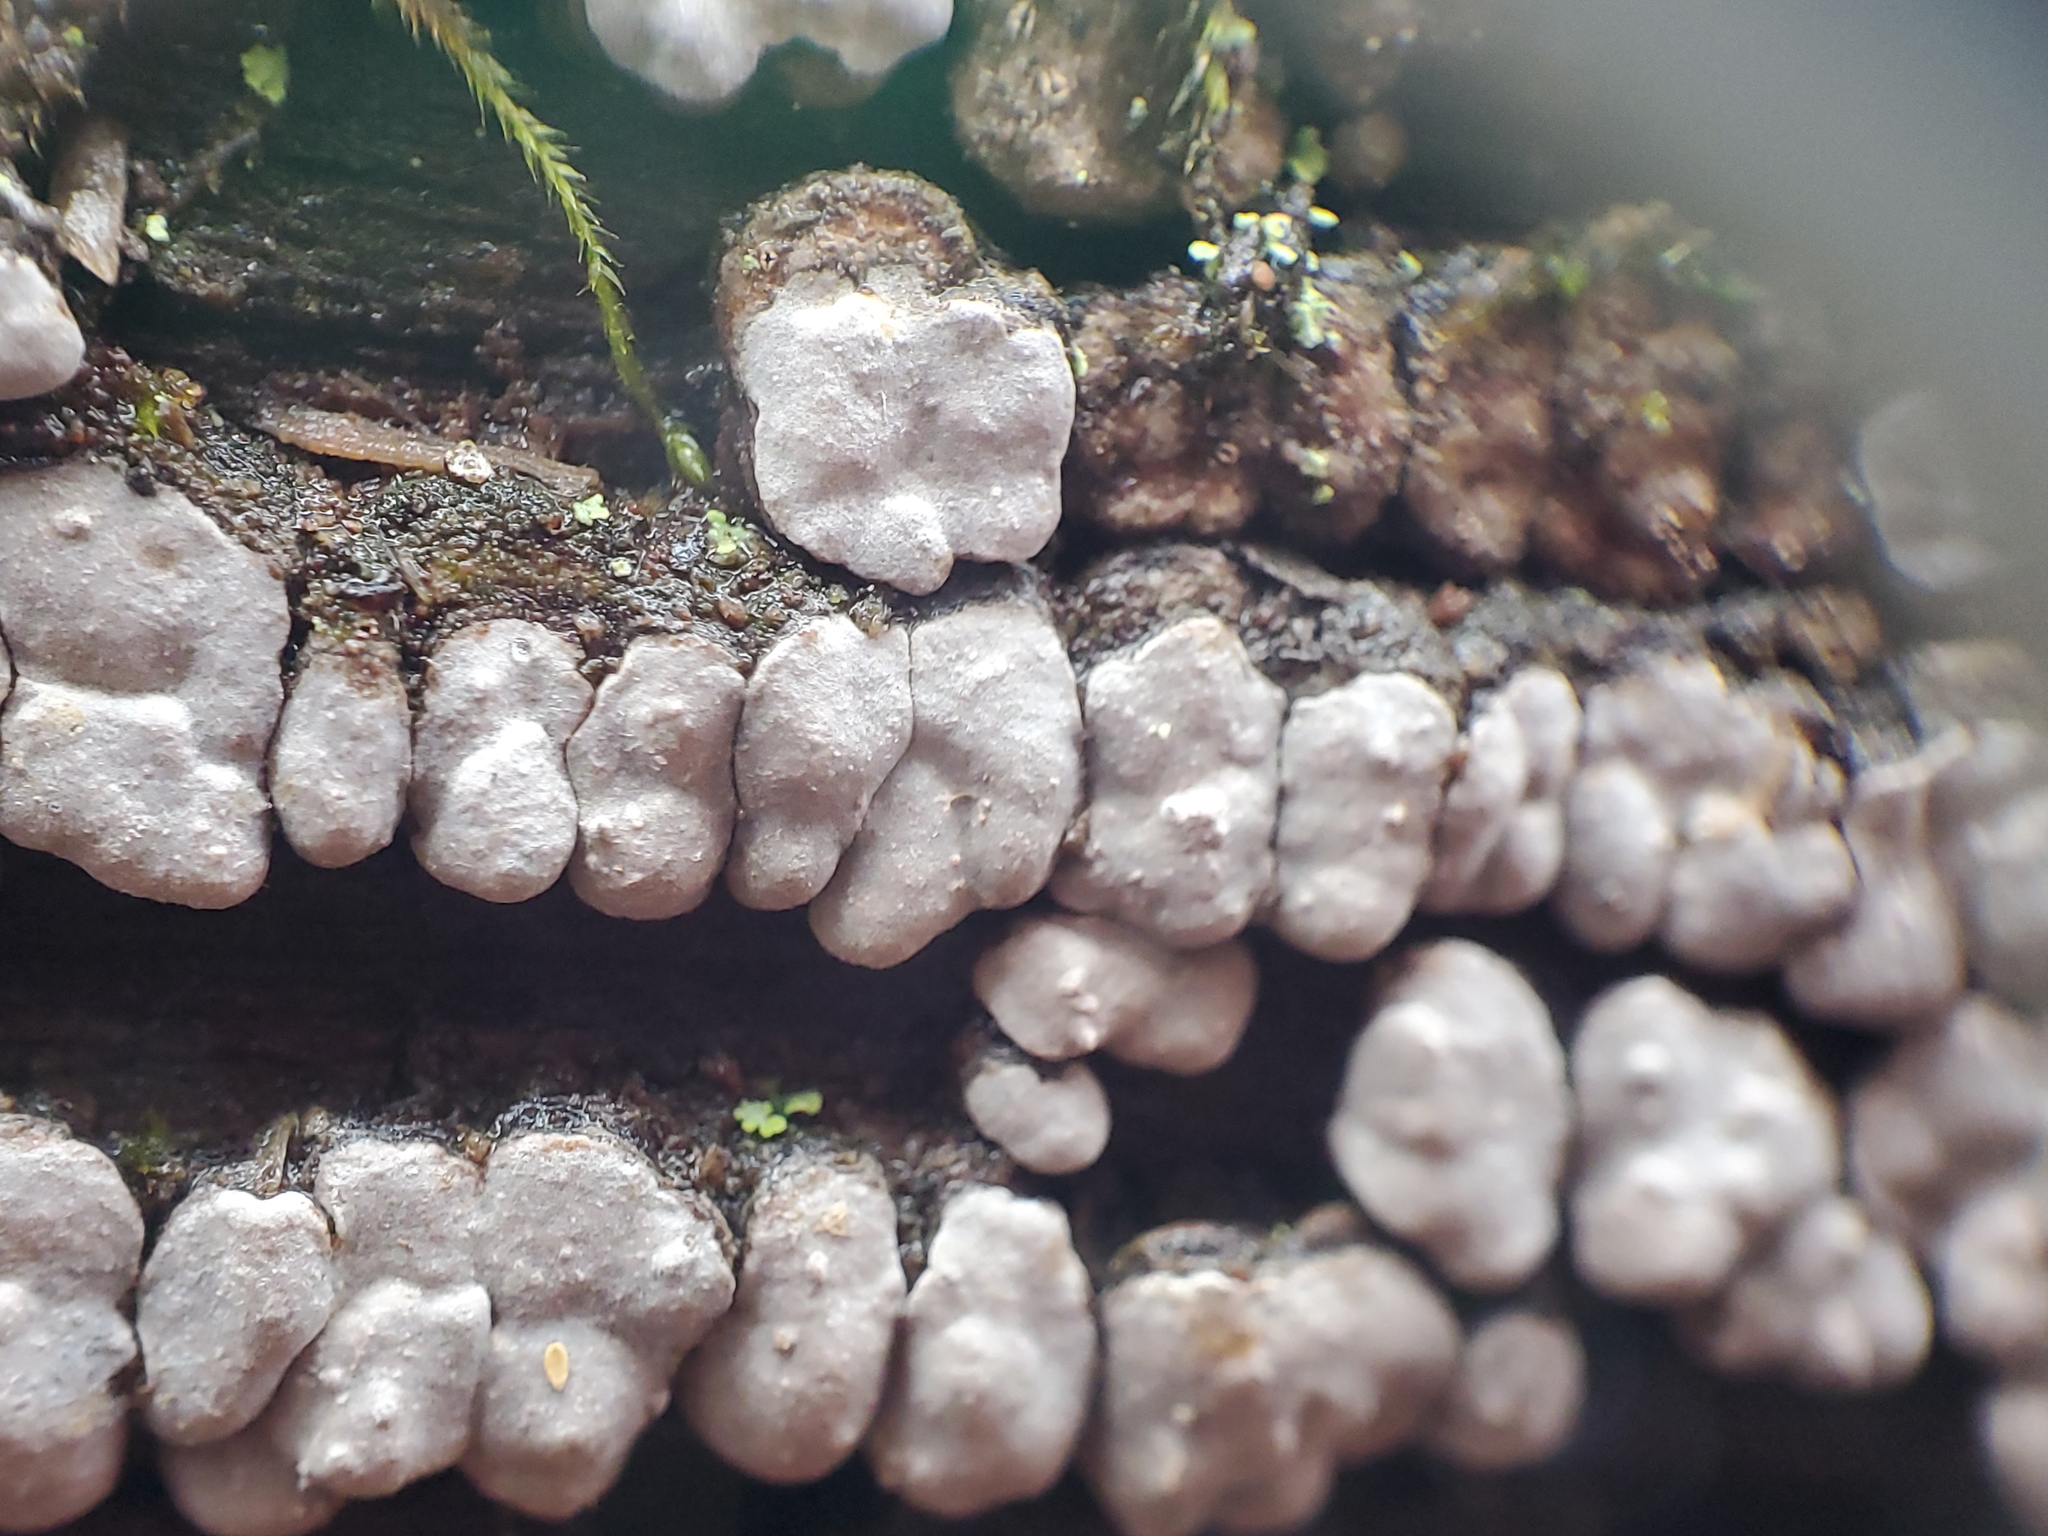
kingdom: Fungi
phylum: Basidiomycota
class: Agaricomycetes
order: Russulales
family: Stereaceae
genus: Xylobolus
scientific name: Xylobolus frustulatus
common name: Ceramic parchment
